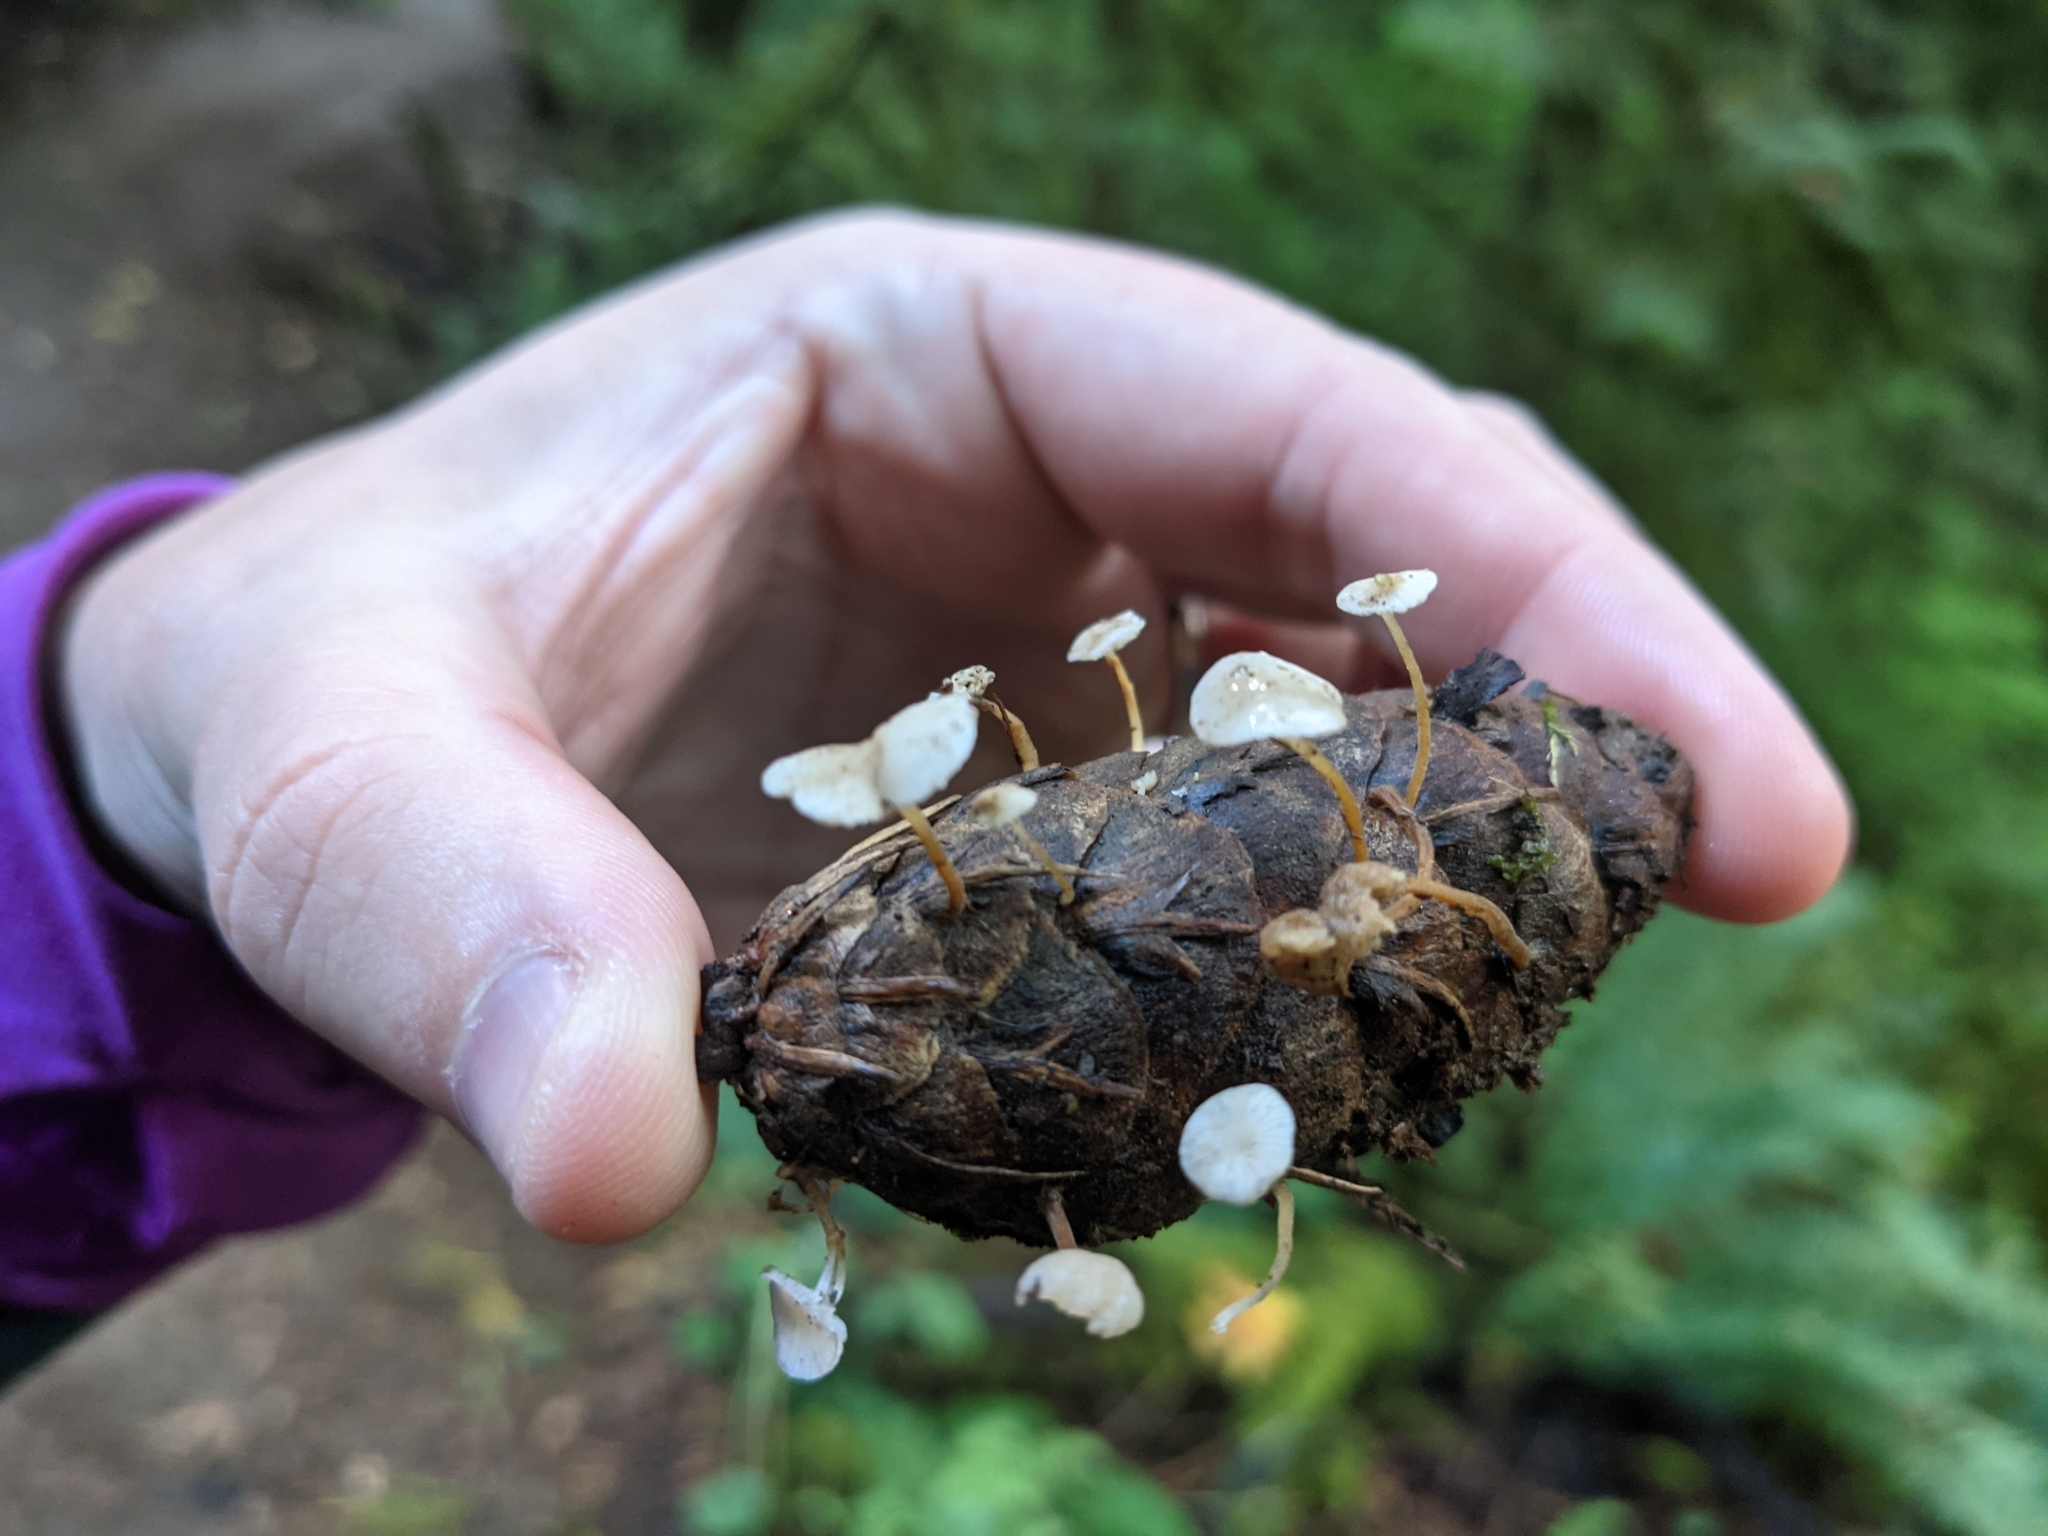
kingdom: Fungi
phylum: Basidiomycota
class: Agaricomycetes
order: Agaricales
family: Physalacriaceae
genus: Strobilurus
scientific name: Strobilurus trullisatus
